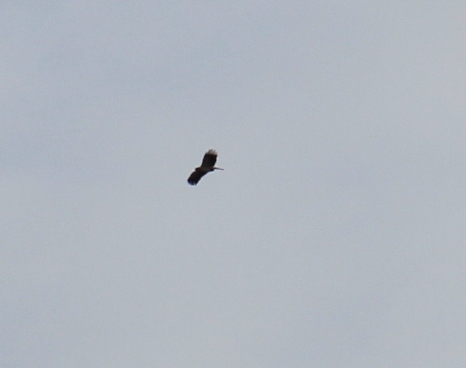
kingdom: Animalia
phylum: Chordata
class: Aves
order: Accipitriformes
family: Accipitridae
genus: Hieraaetus
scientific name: Hieraaetus pennatus
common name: Booted eagle
